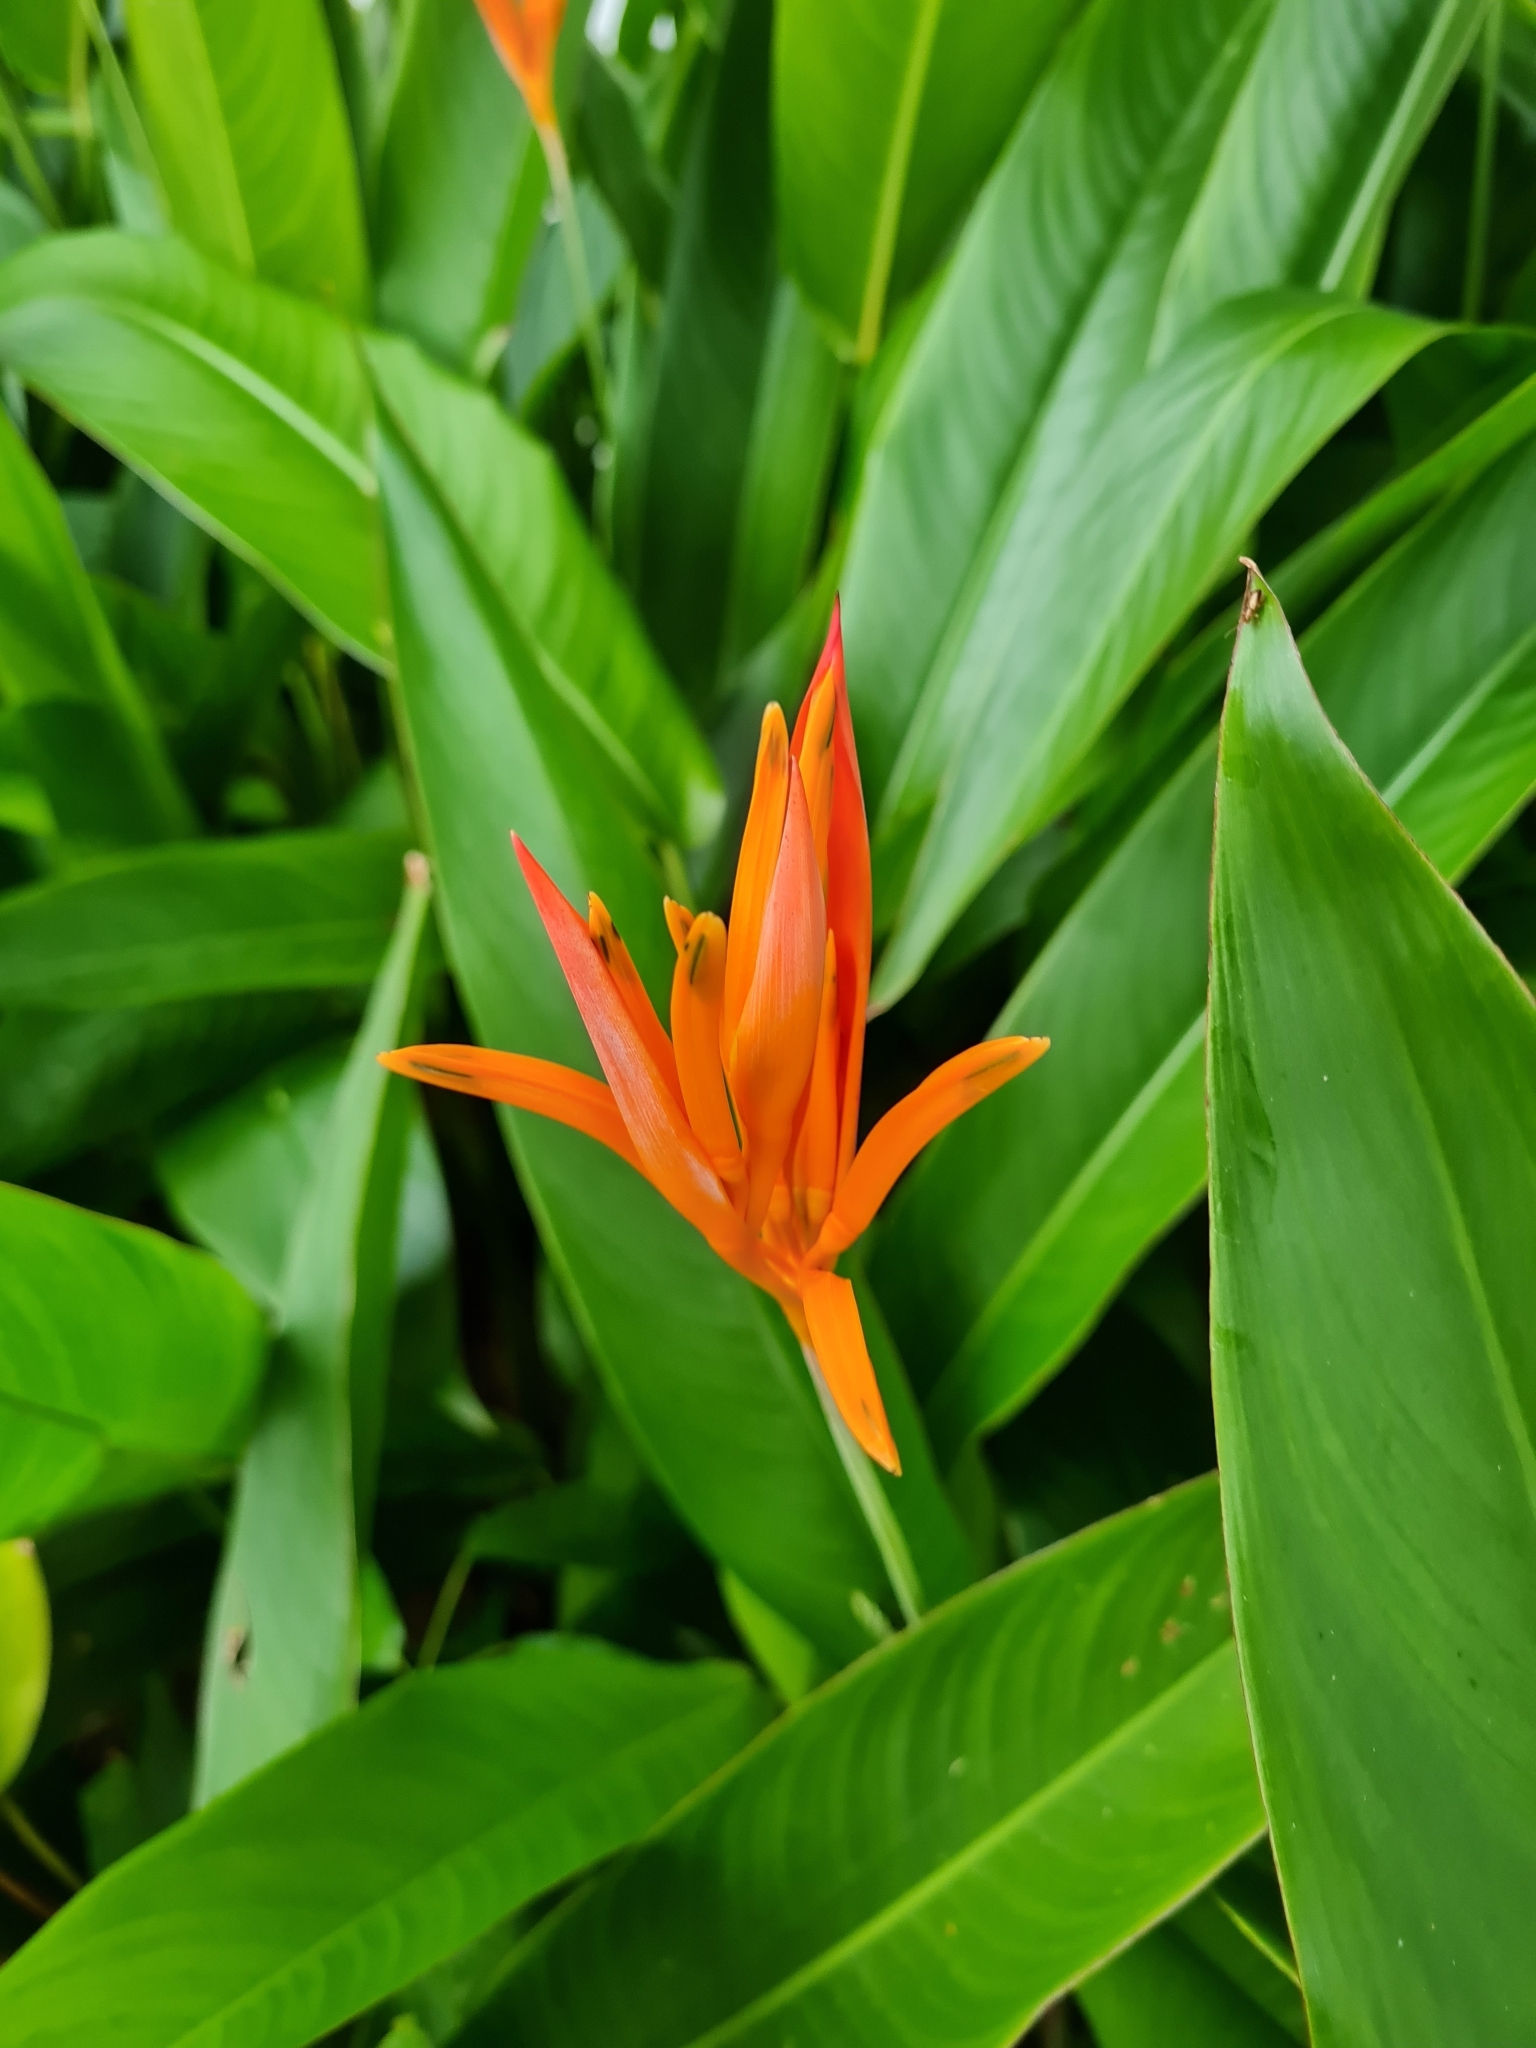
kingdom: Plantae
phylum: Tracheophyta
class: Liliopsida
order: Zingiberales
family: Heliconiaceae
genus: Heliconia
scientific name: Heliconia psittacorum
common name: Parrot's-flower
